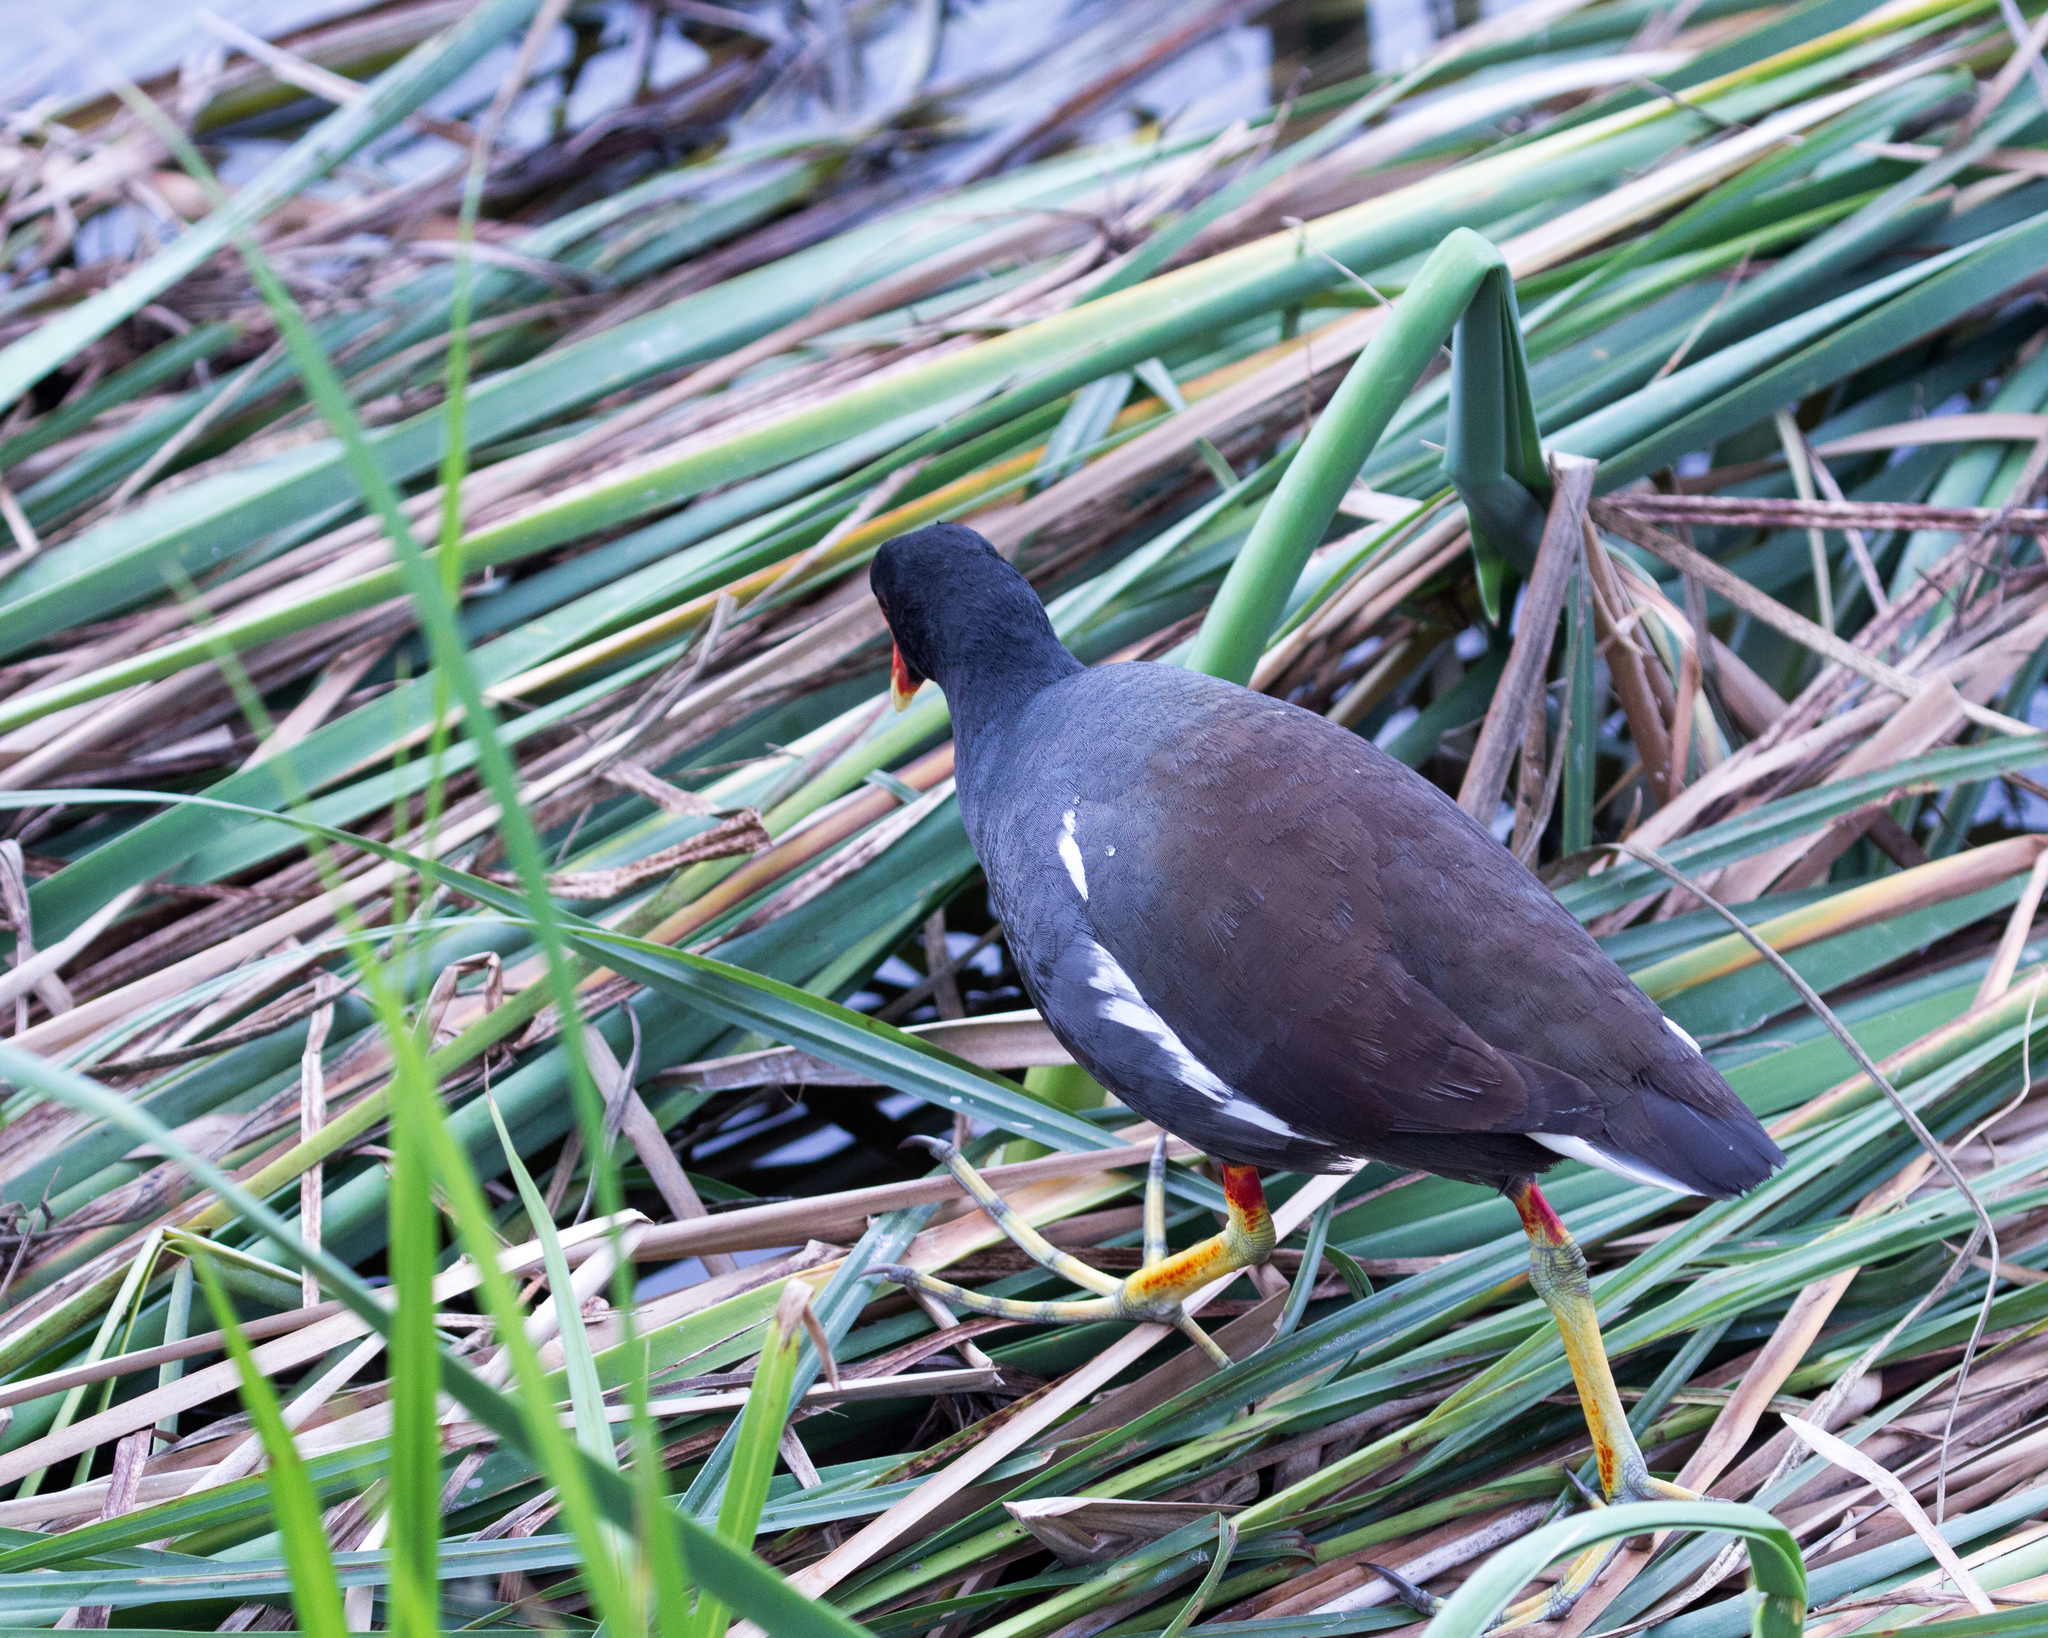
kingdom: Animalia
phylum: Chordata
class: Aves
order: Gruiformes
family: Rallidae
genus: Gallinula
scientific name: Gallinula chloropus
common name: Common moorhen
